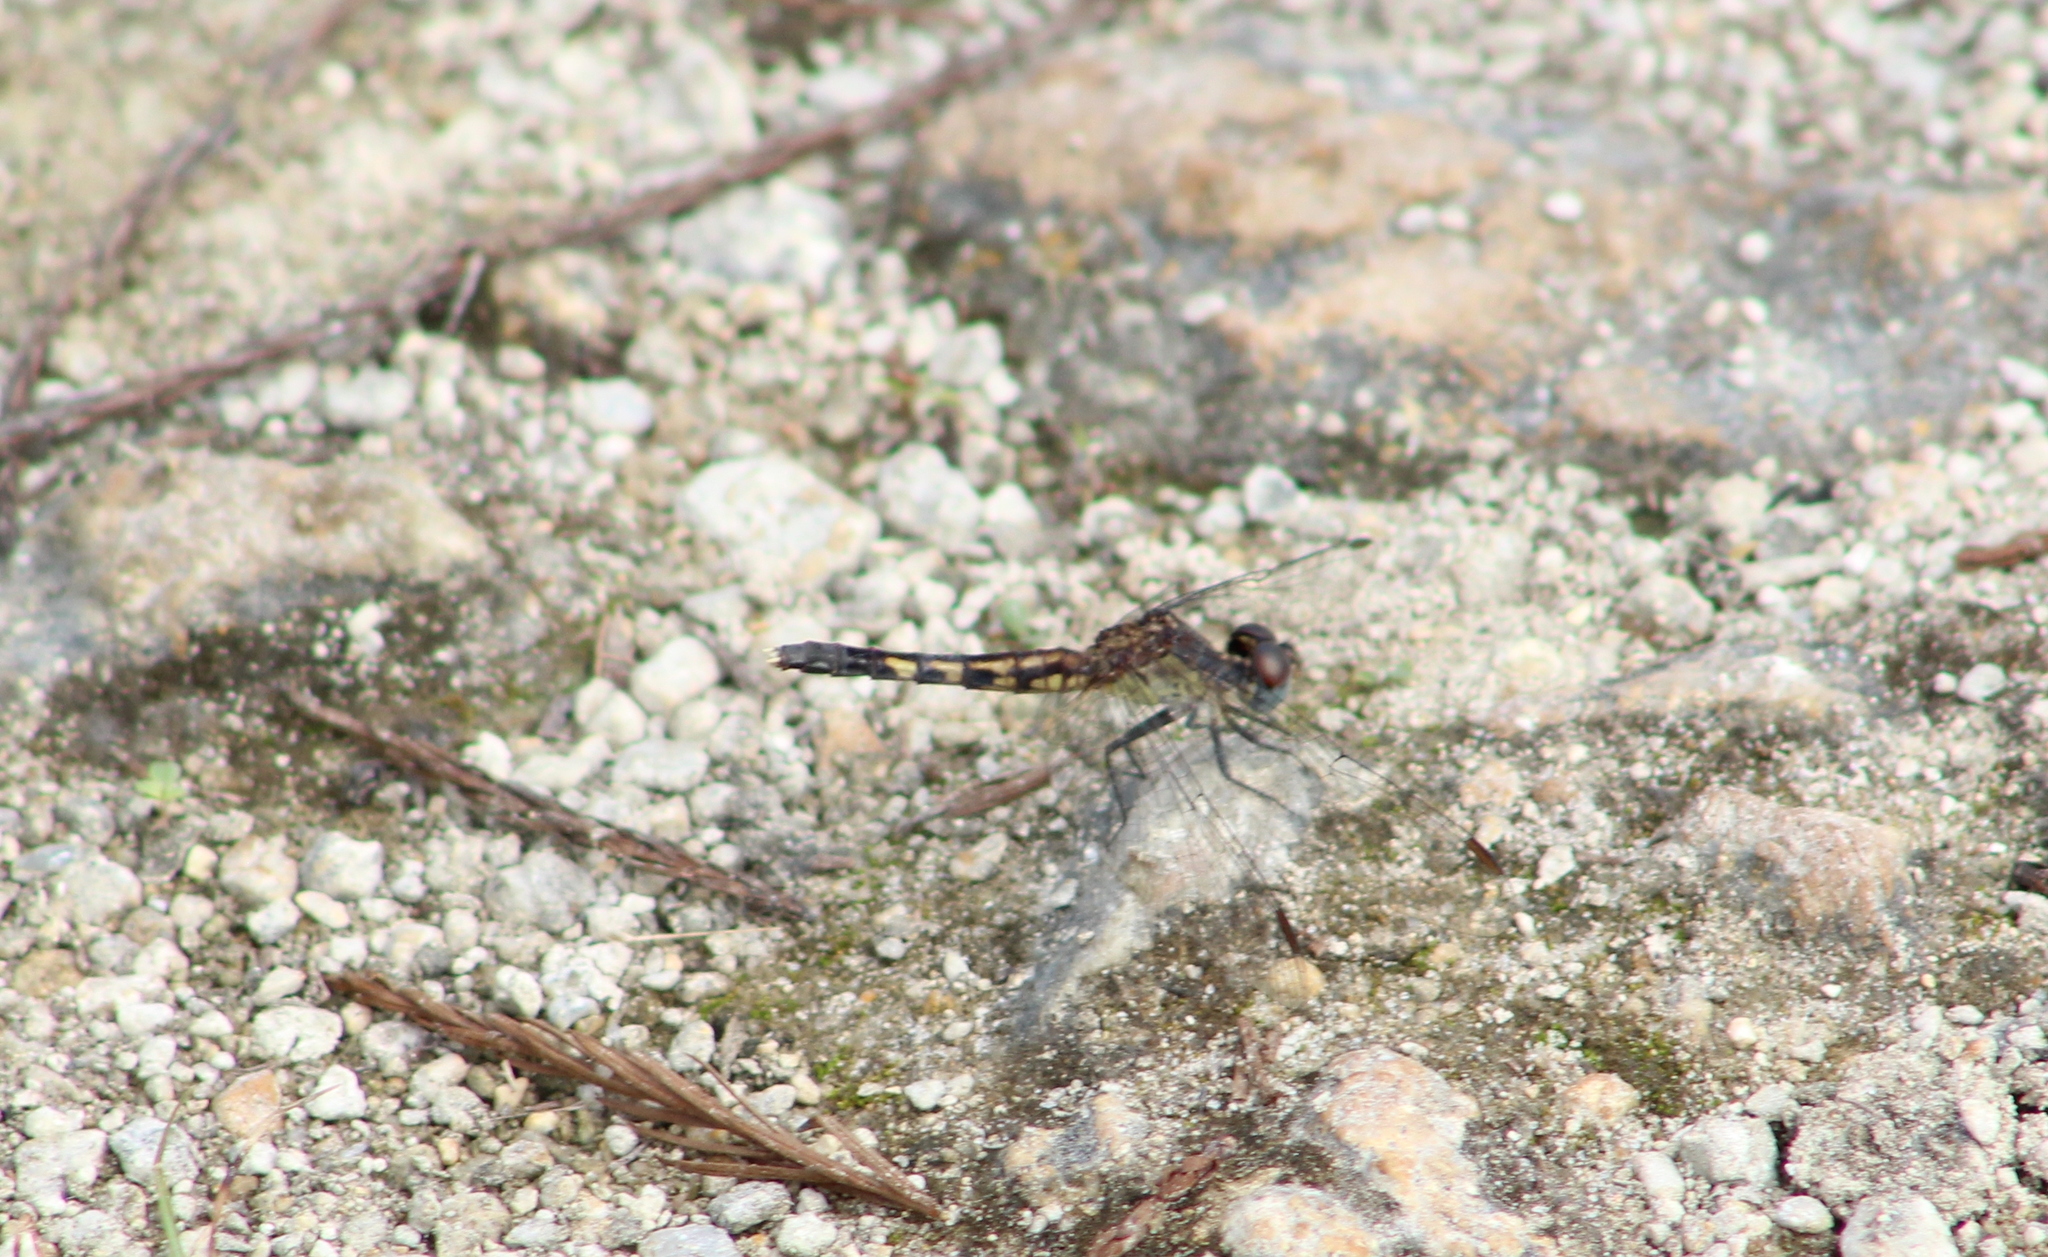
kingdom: Animalia
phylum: Arthropoda
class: Insecta
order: Odonata
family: Libellulidae
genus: Erythrodiplax
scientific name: Erythrodiplax minuscula
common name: Little blue dragonlet
